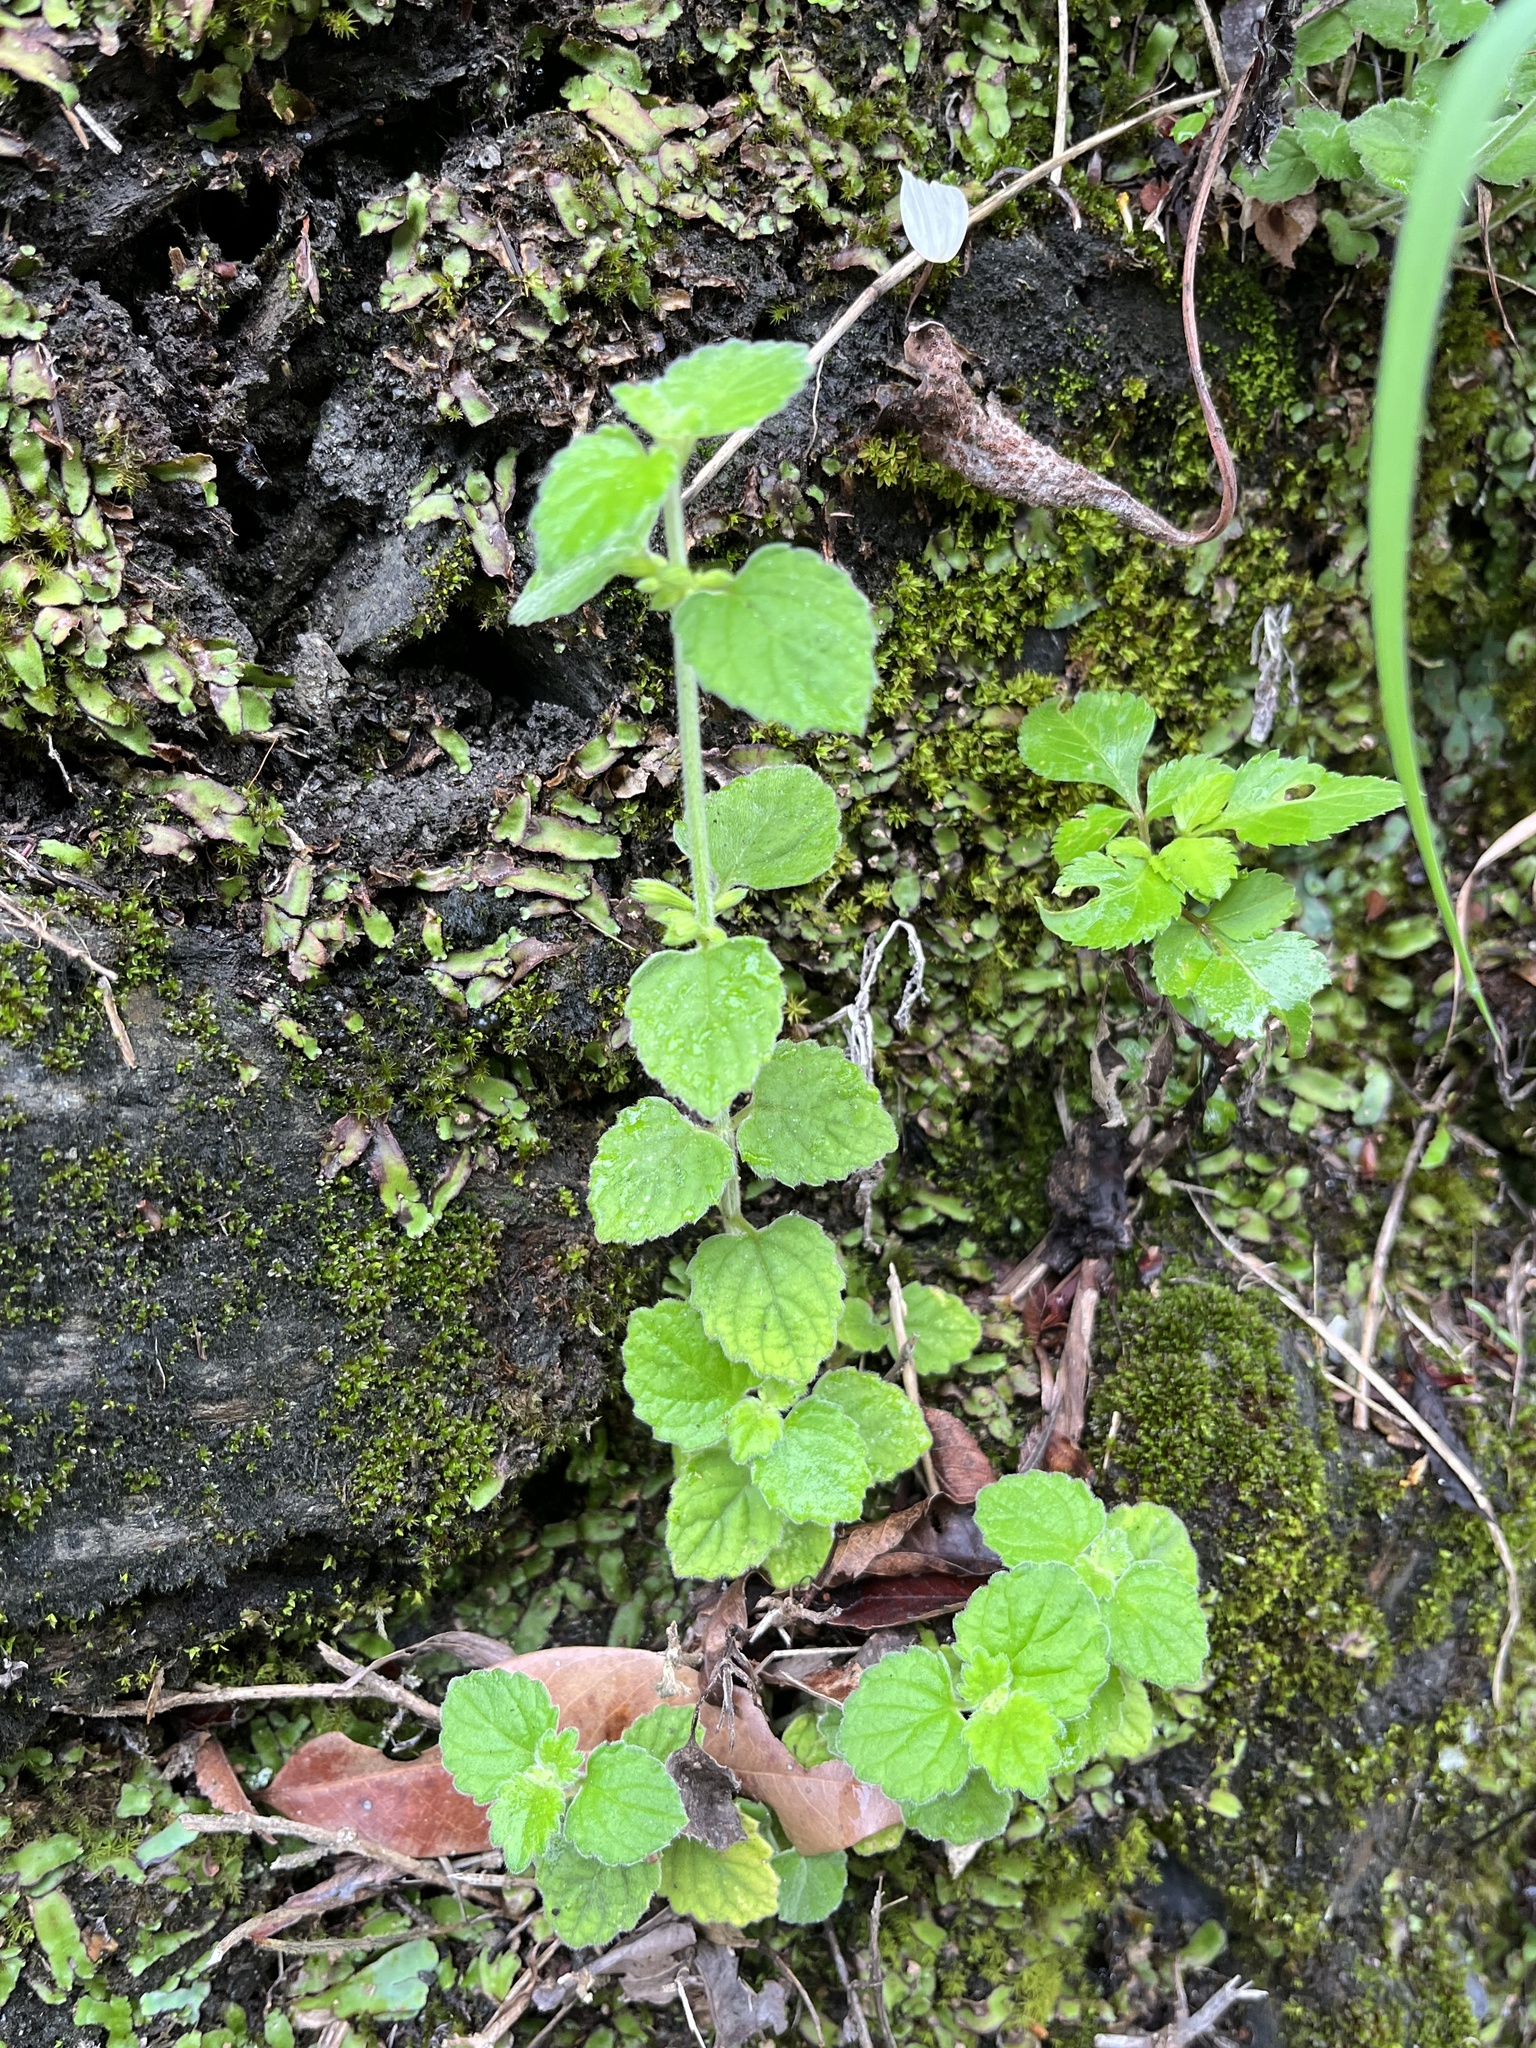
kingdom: Plantae
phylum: Tracheophyta
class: Magnoliopsida
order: Lamiales
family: Lamiaceae
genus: Leucas
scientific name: Leucas chinensis
